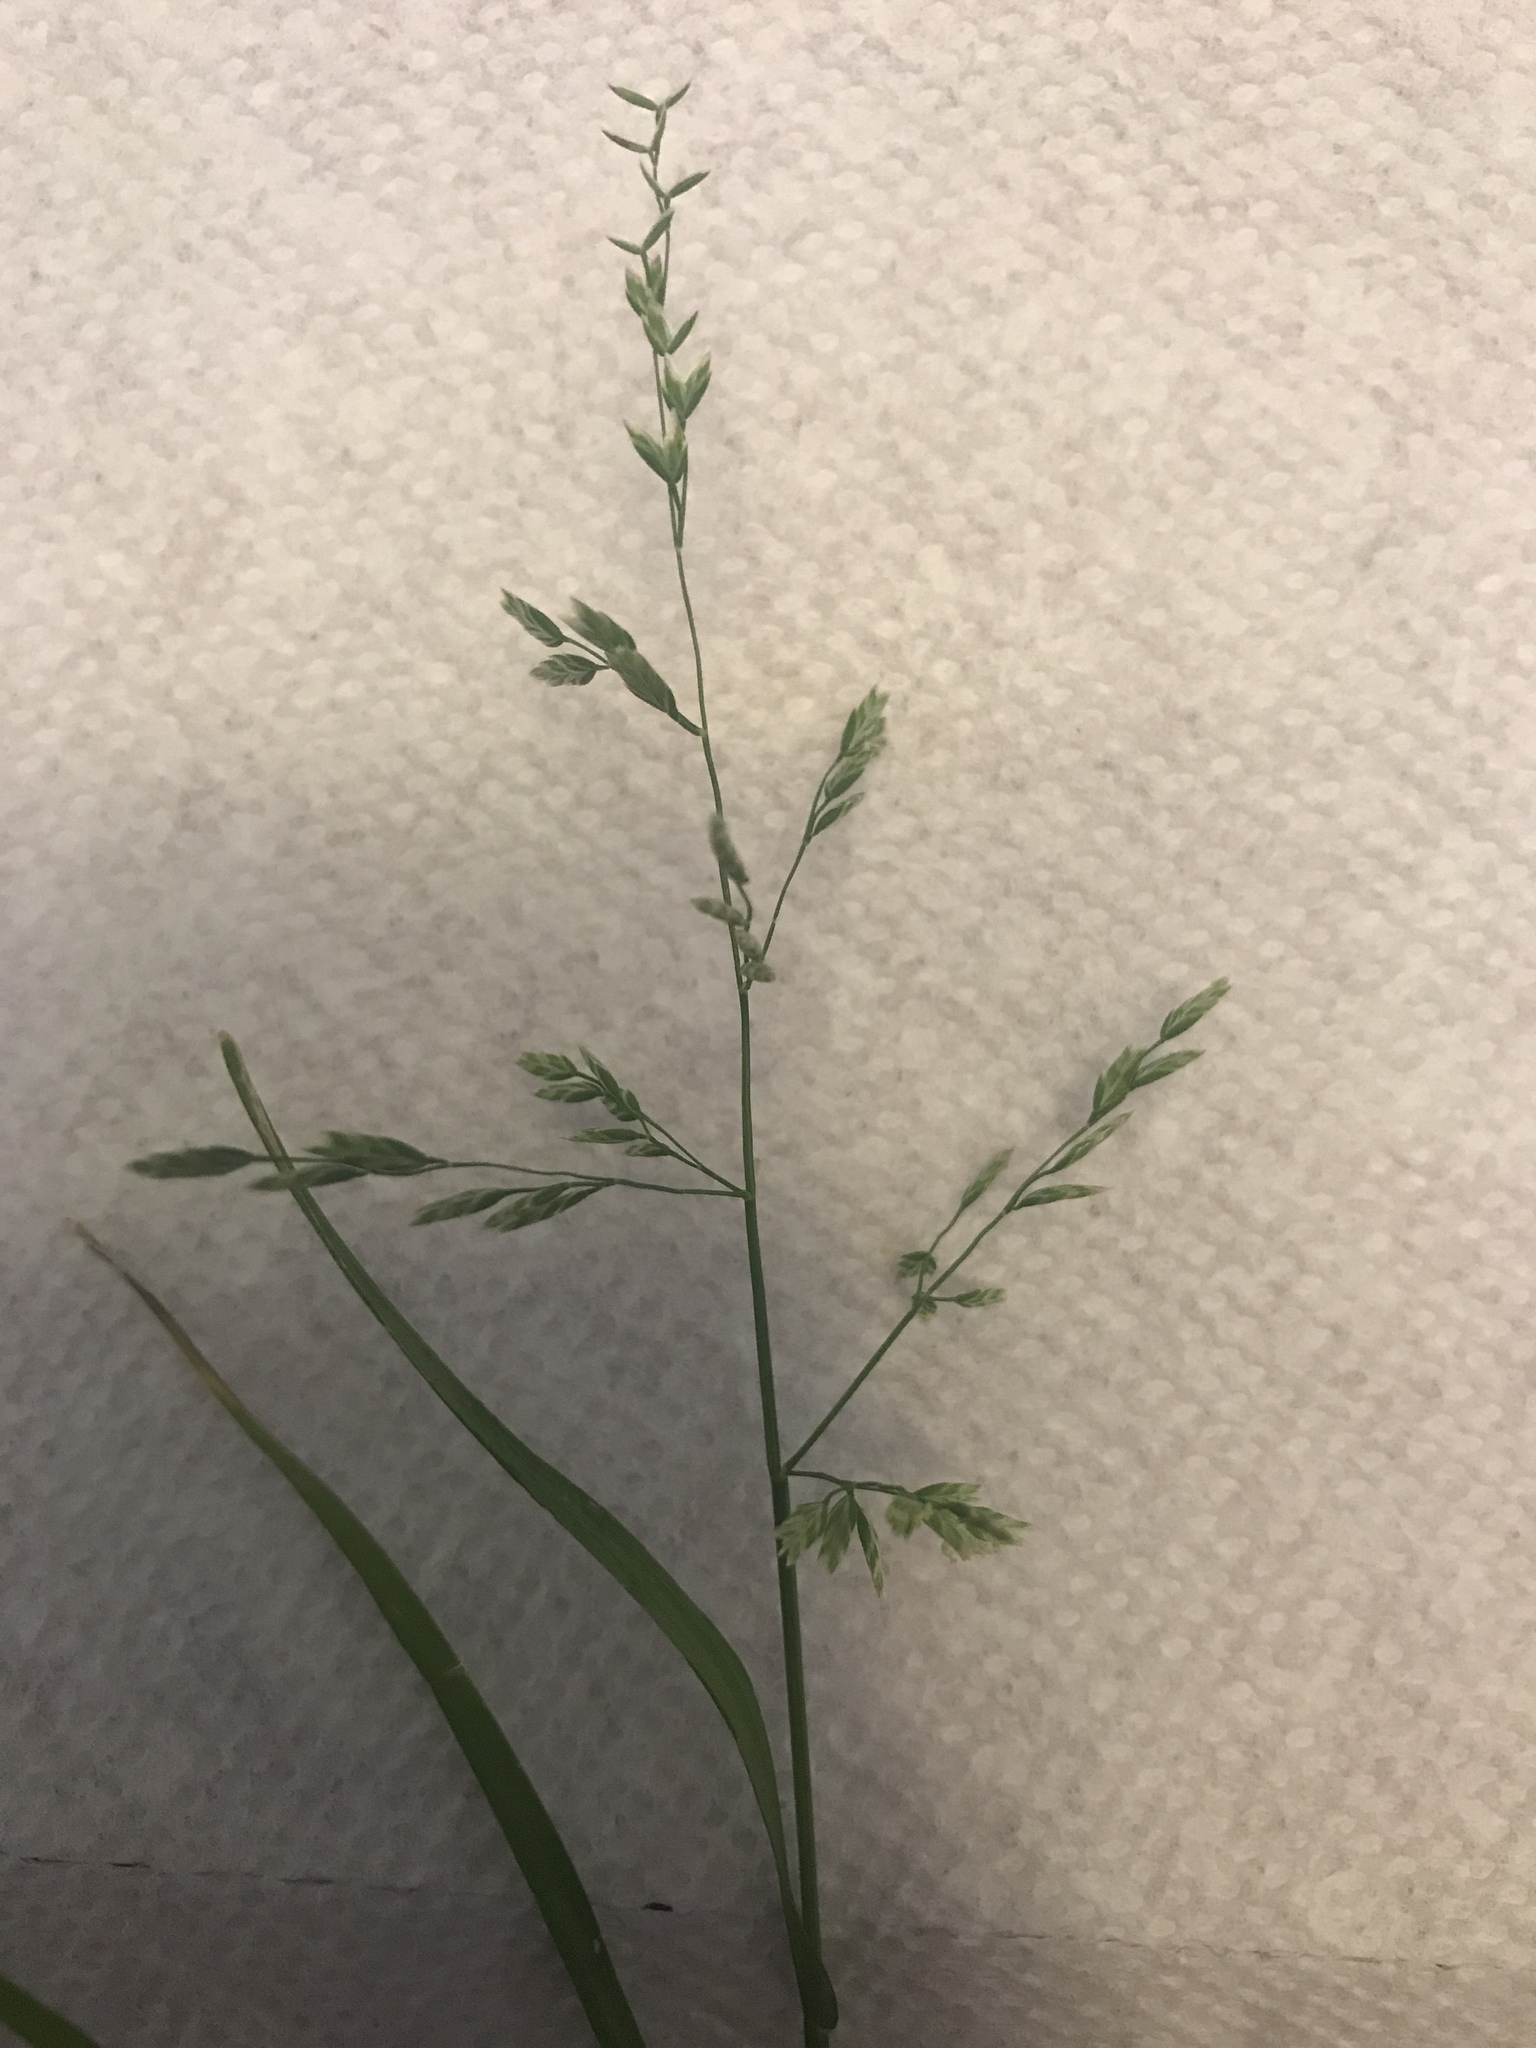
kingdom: Plantae
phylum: Tracheophyta
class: Liliopsida
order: Poales
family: Poaceae
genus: Poa
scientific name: Poa annua
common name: Annual bluegrass
